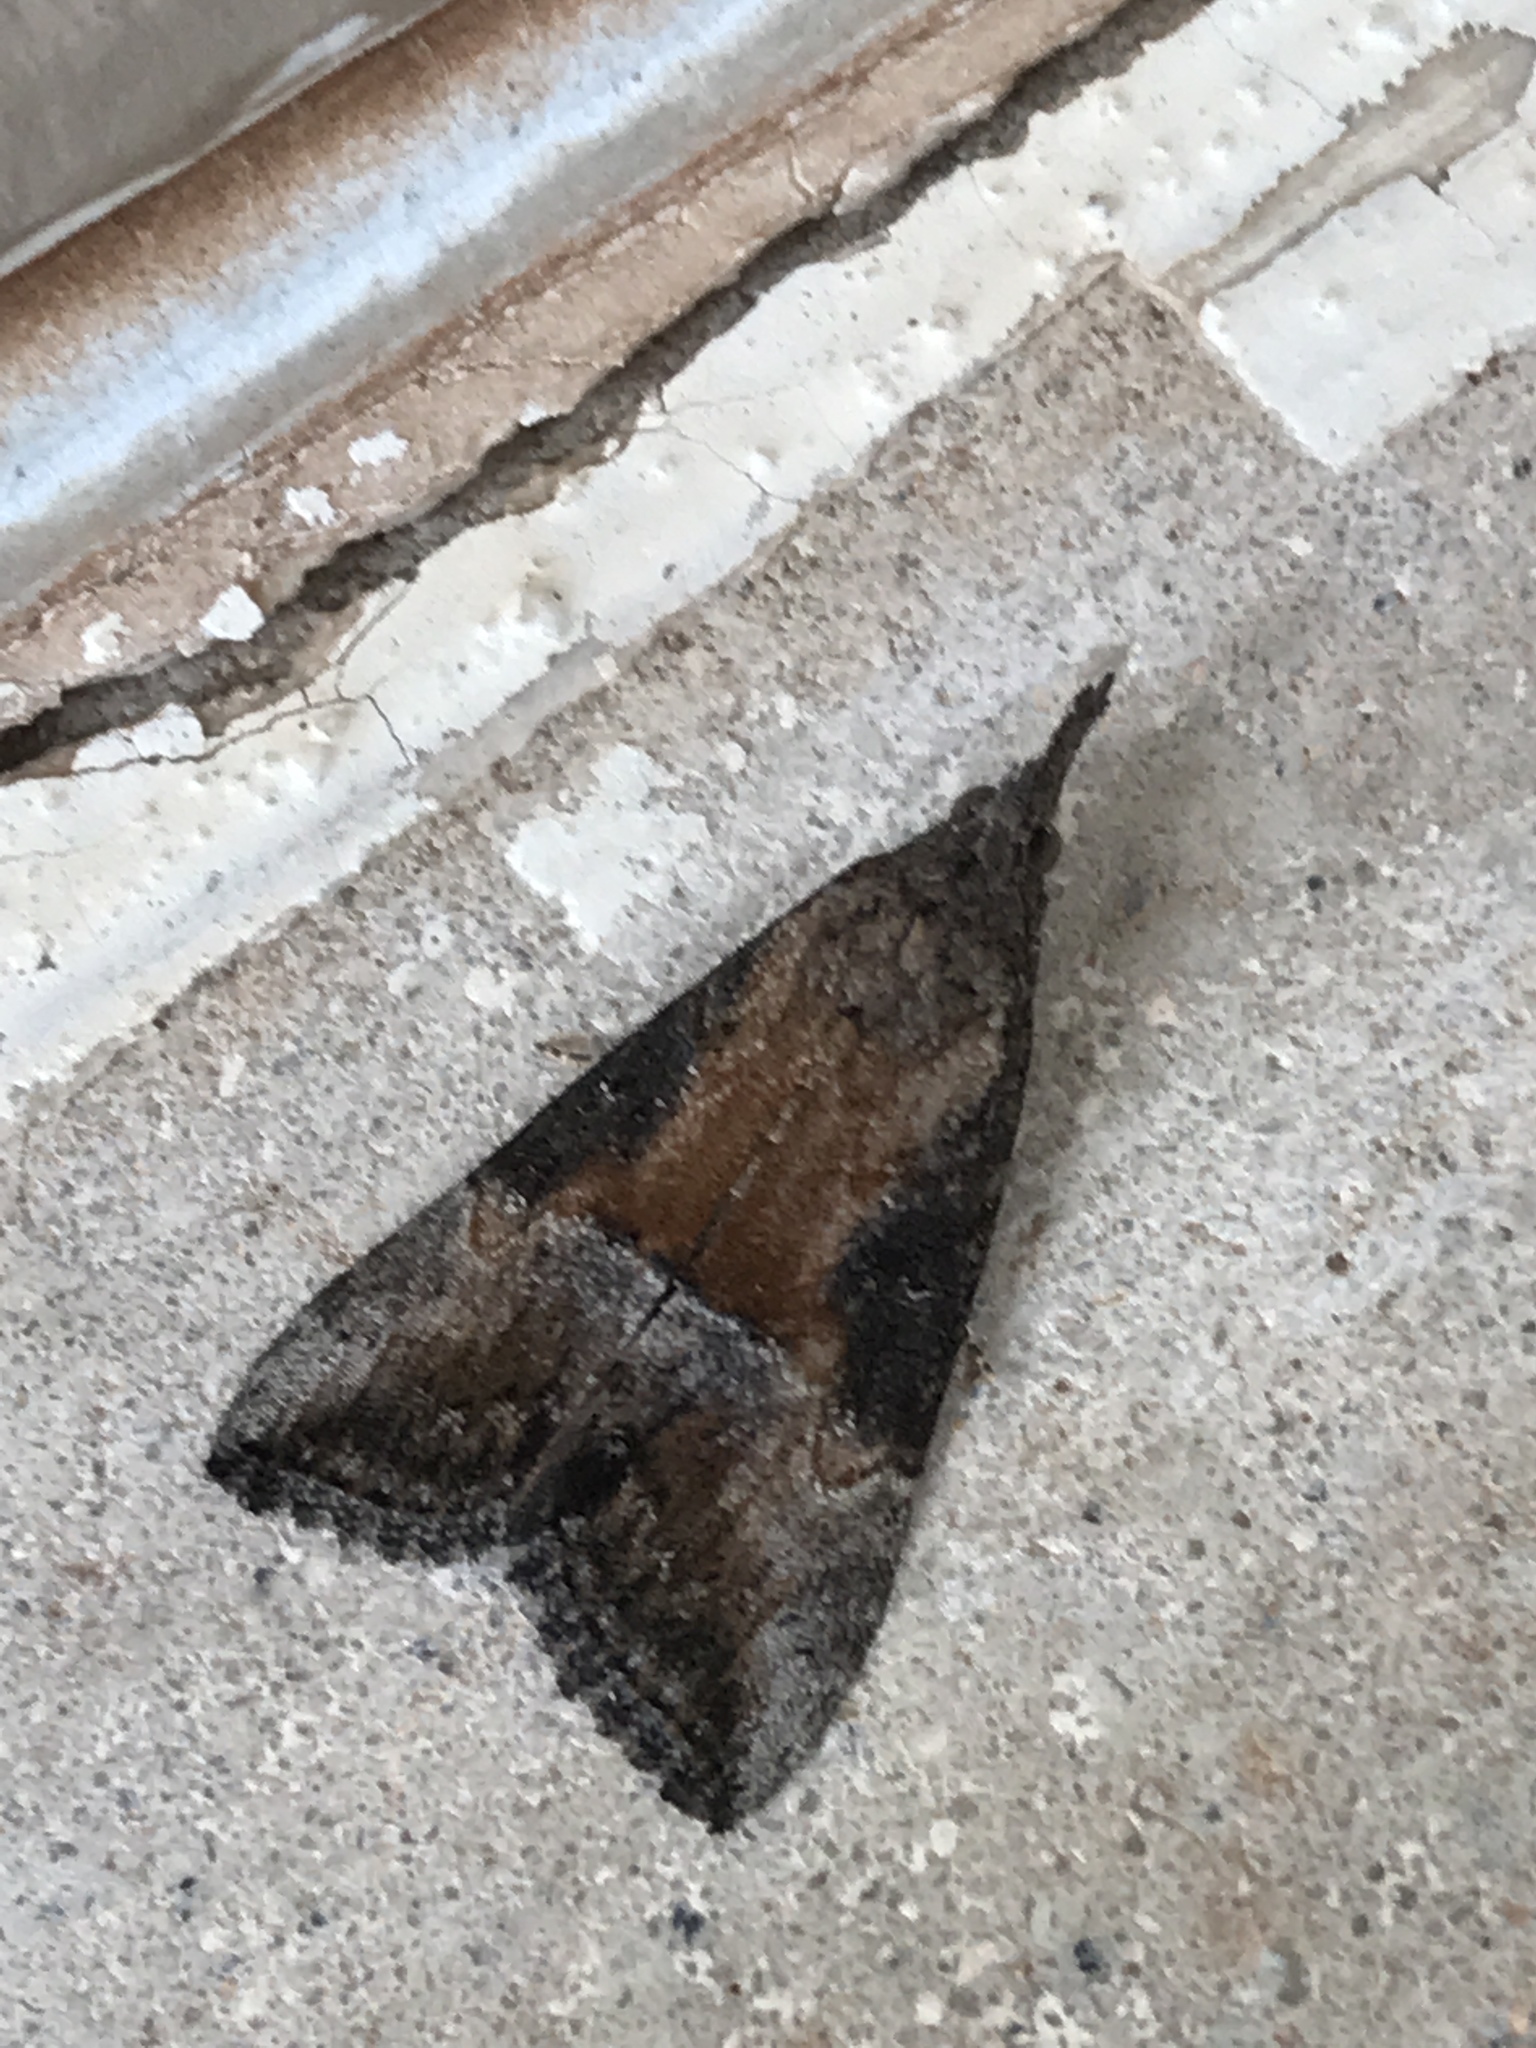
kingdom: Animalia
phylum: Arthropoda
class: Insecta
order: Lepidoptera
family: Erebidae
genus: Hypena
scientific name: Hypena scabra
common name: Green cloverworm
